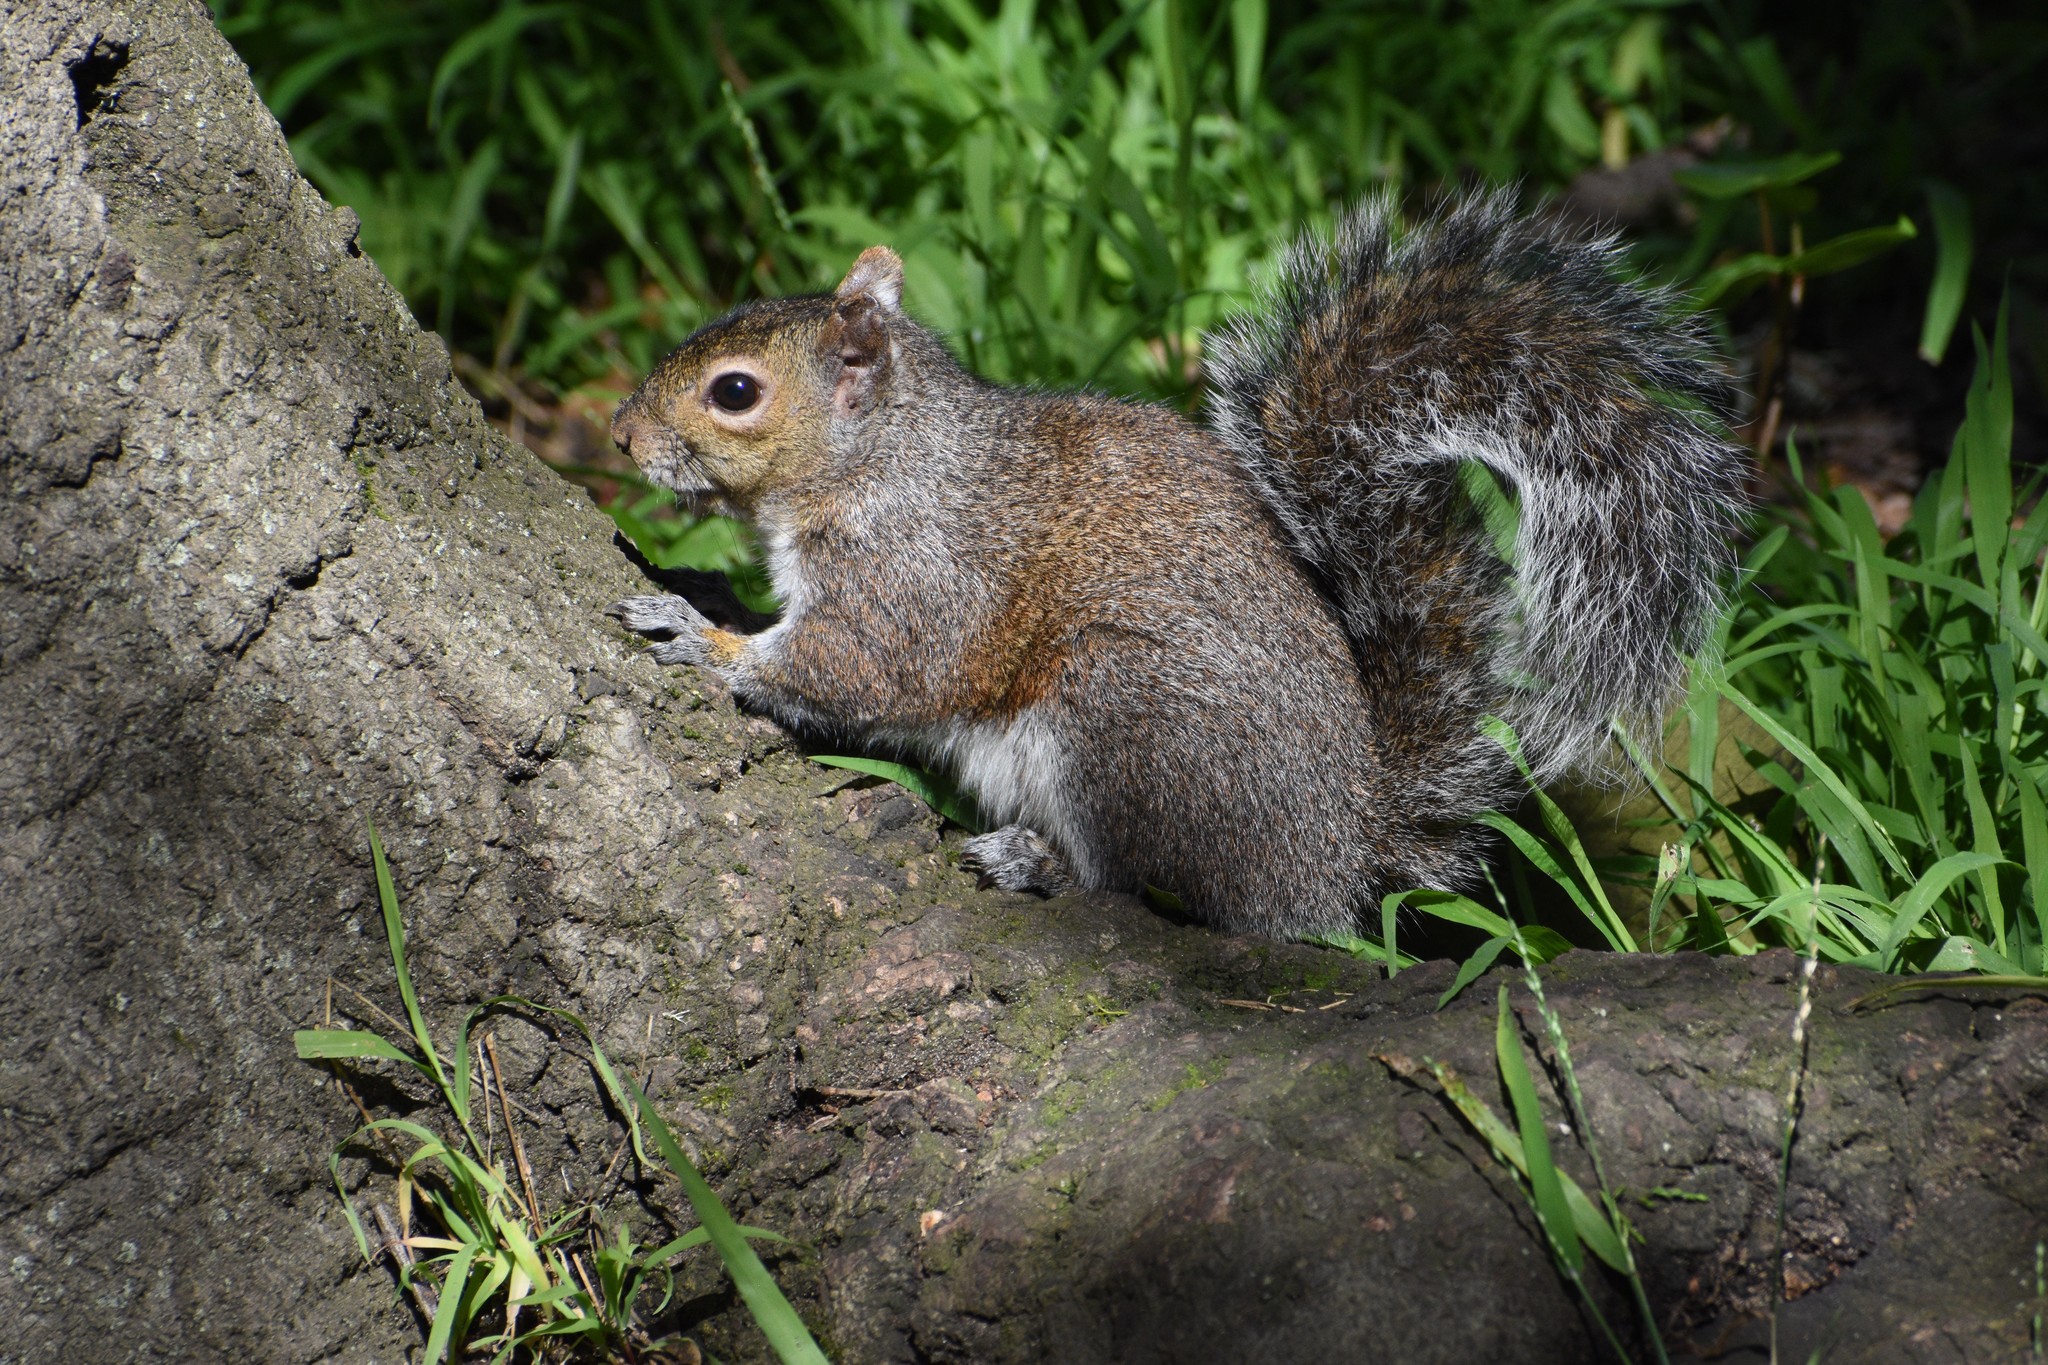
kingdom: Animalia
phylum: Chordata
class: Mammalia
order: Rodentia
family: Sciuridae
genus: Sciurus
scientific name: Sciurus carolinensis
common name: Eastern gray squirrel
